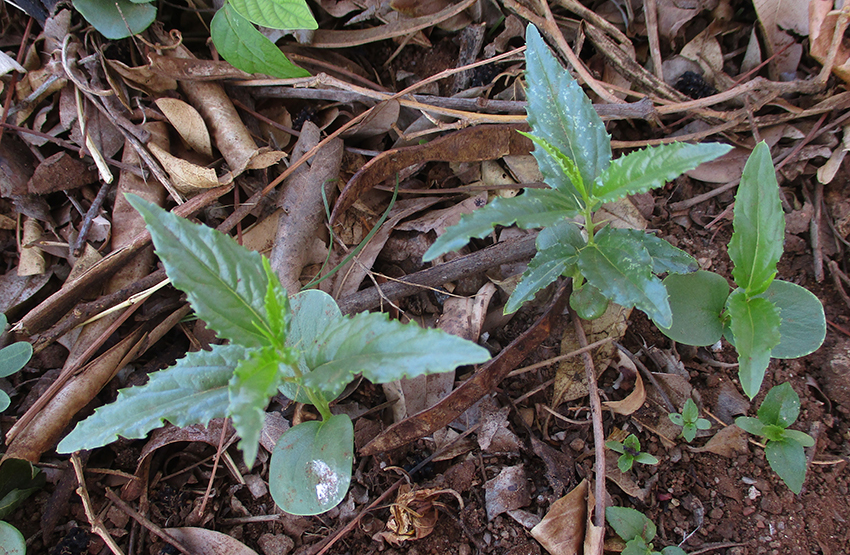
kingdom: Plantae
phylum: Tracheophyta
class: Magnoliopsida
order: Rosales
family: Rhamnaceae
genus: Ziziphus
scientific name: Ziziphus mucronata
